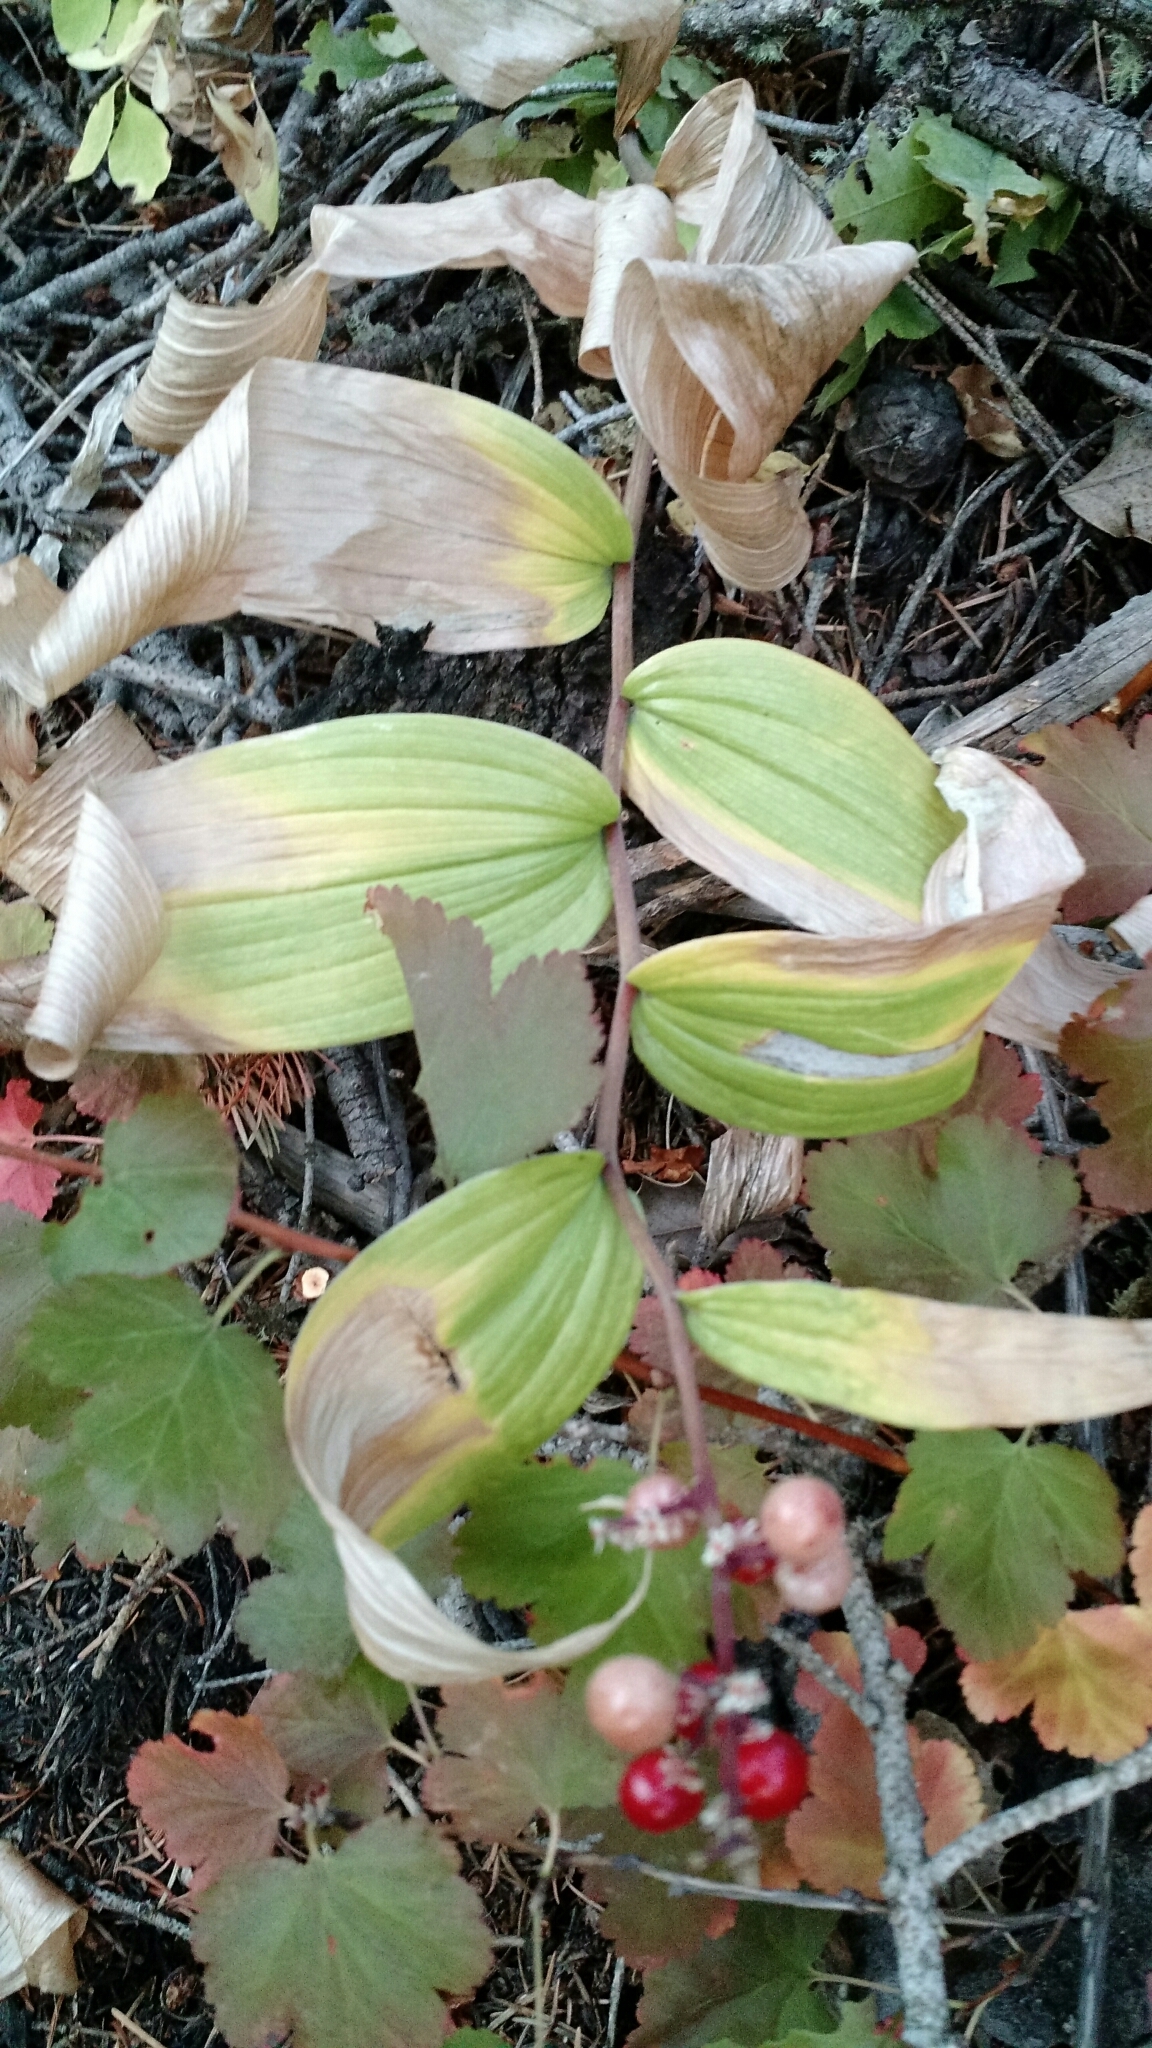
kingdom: Plantae
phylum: Tracheophyta
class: Liliopsida
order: Asparagales
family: Asparagaceae
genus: Maianthemum
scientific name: Maianthemum racemosum
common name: False spikenard
